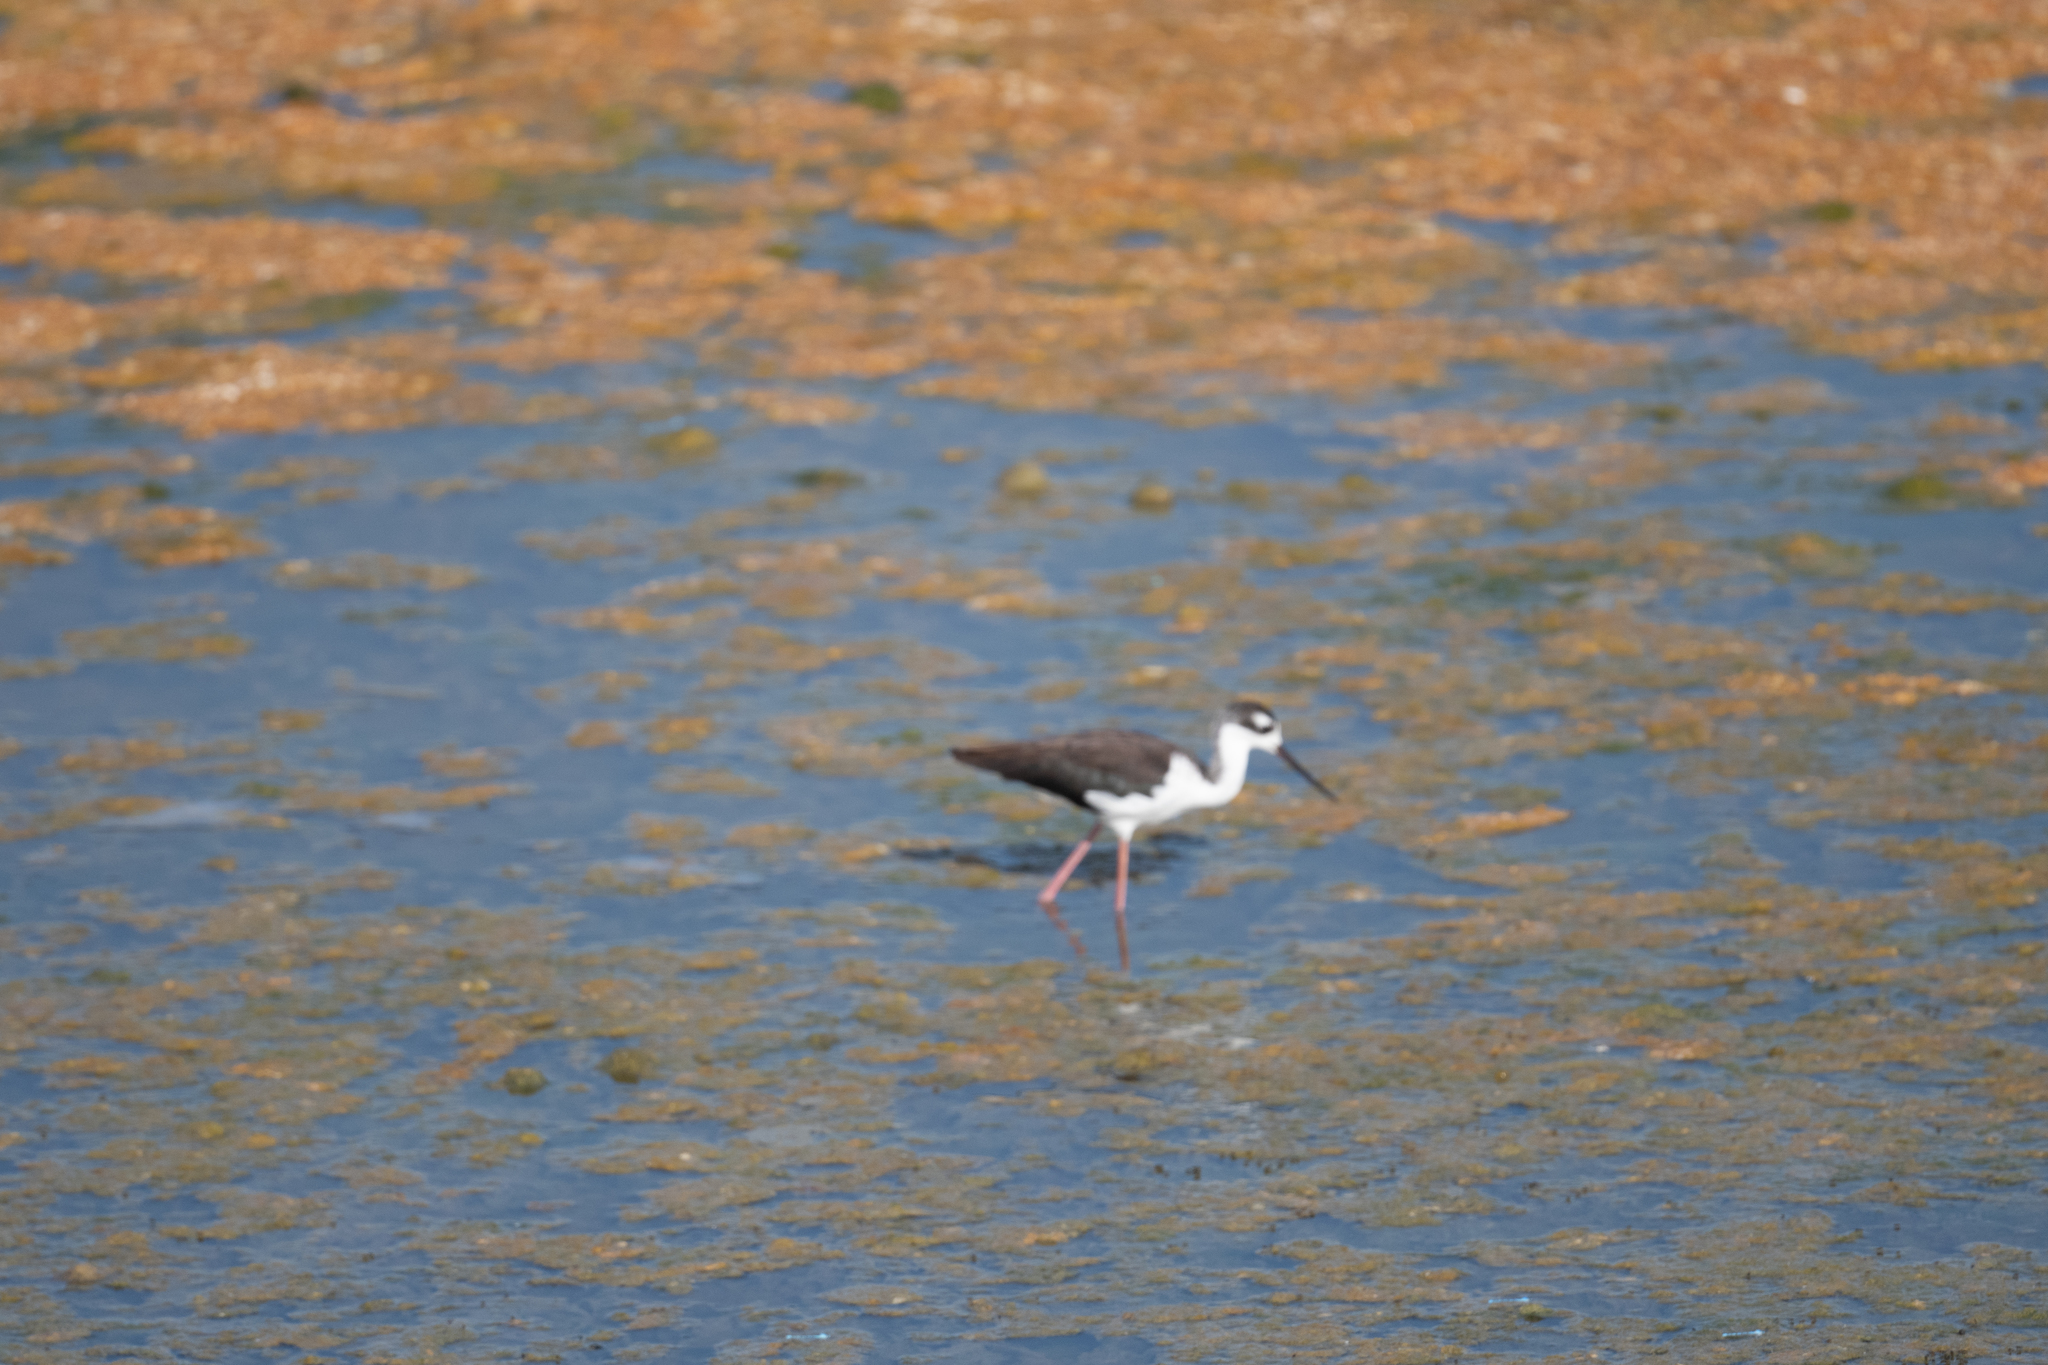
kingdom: Animalia
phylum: Chordata
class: Aves
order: Charadriiformes
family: Recurvirostridae
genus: Himantopus
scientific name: Himantopus mexicanus
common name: Black-necked stilt
